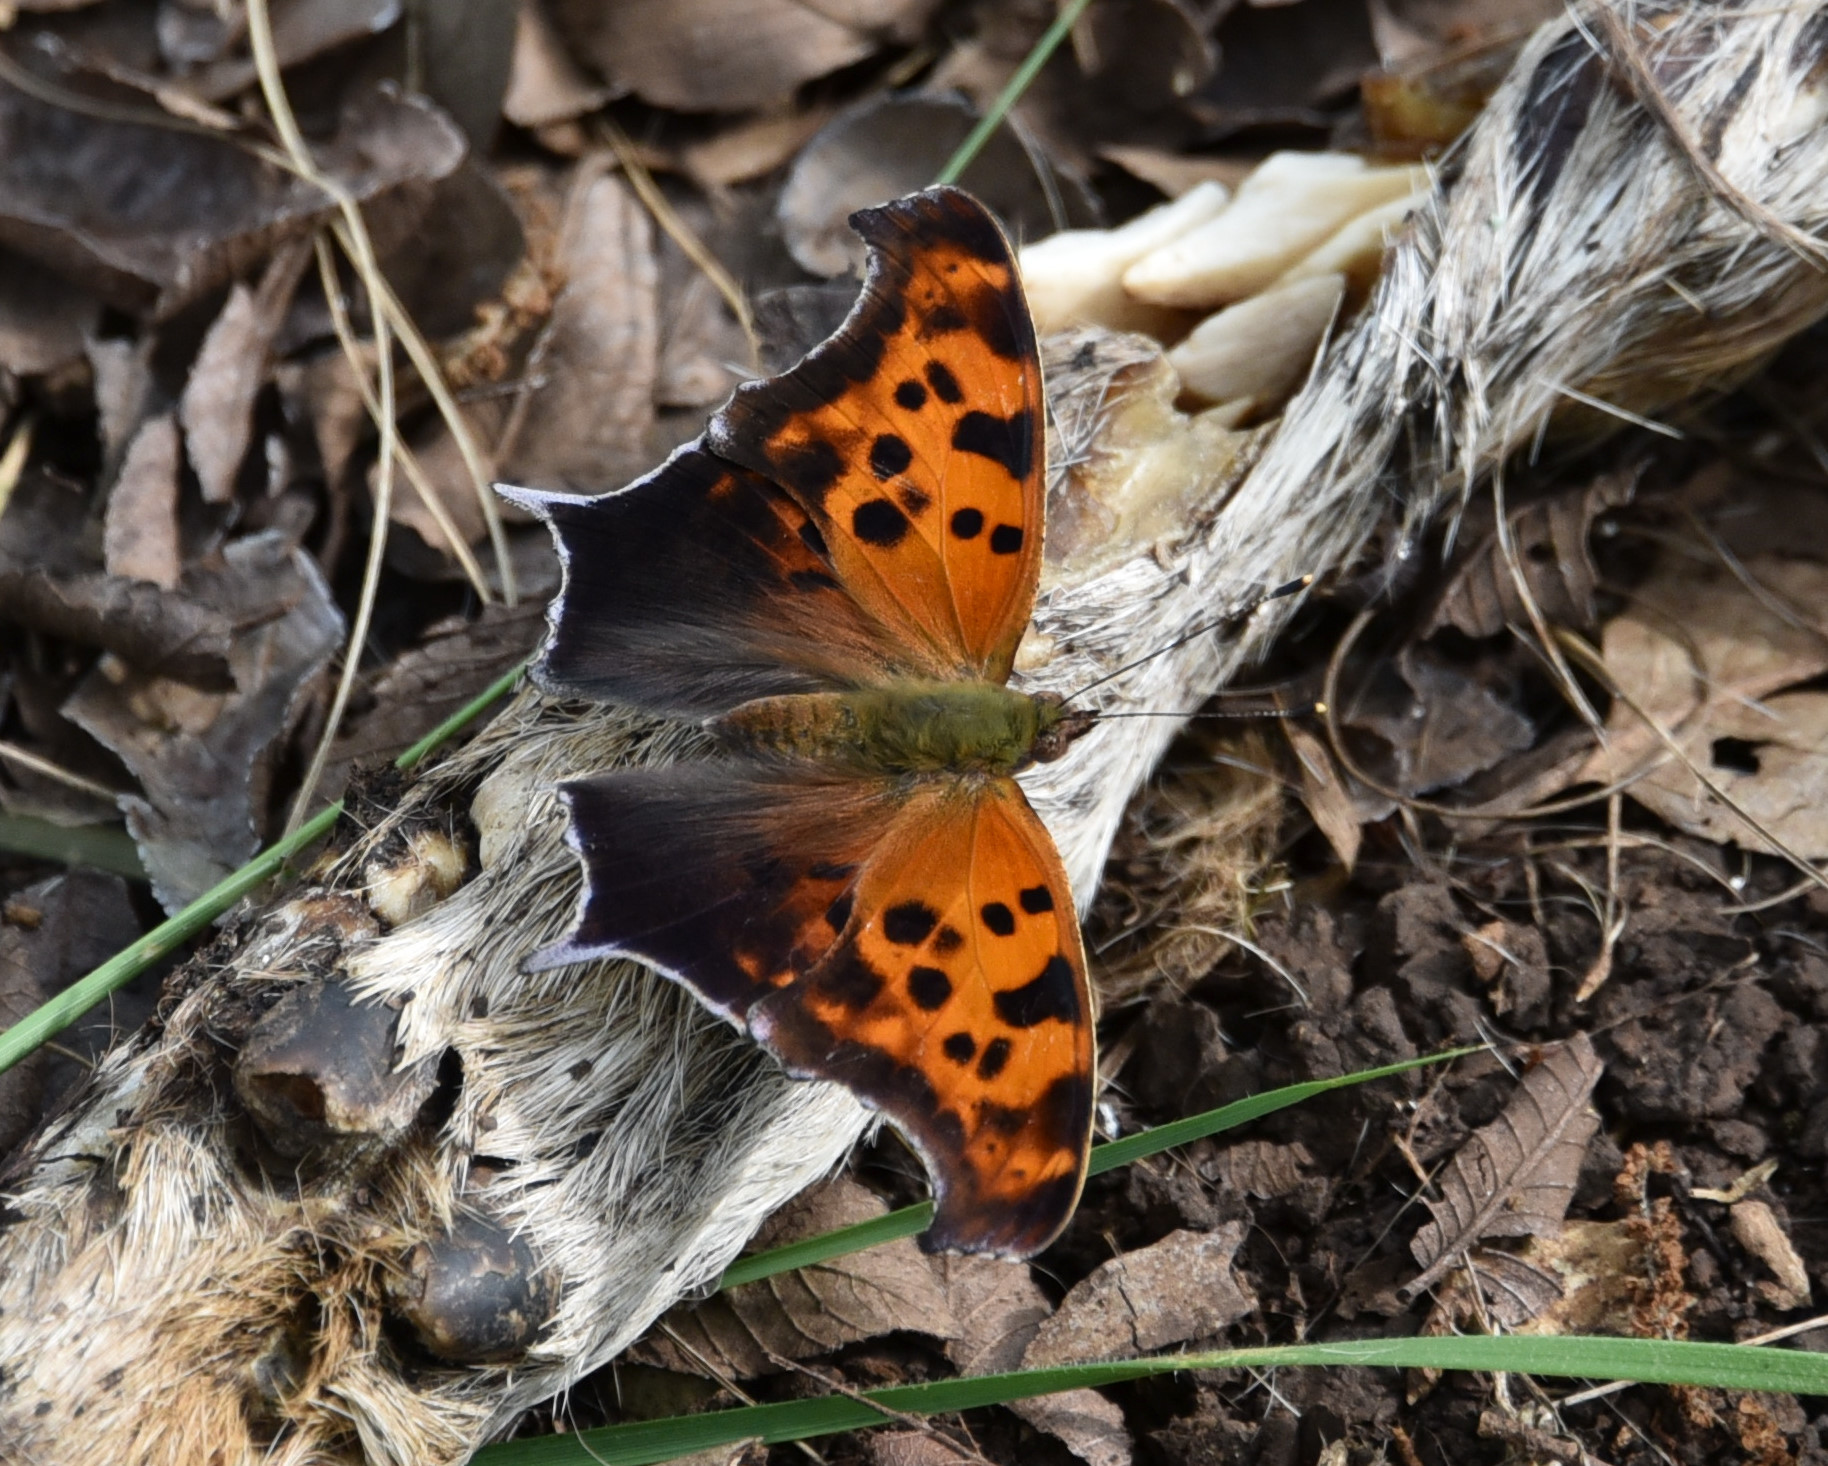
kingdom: Animalia
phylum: Arthropoda
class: Insecta
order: Lepidoptera
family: Nymphalidae
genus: Polygonia
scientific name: Polygonia interrogationis
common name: Question mark
